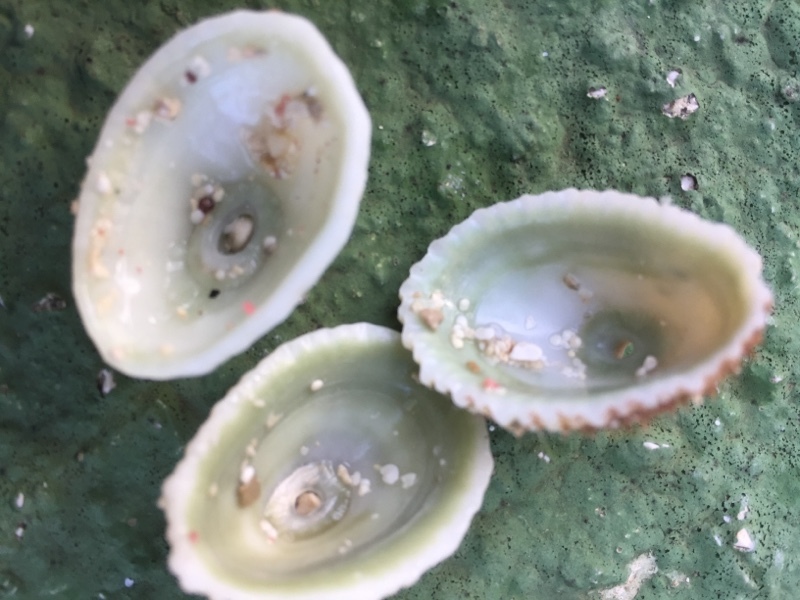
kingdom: Animalia
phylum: Mollusca
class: Gastropoda
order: Lepetellida
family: Fissurellidae
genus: Fissurella
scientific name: Fissurella barbadensis
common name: Barbados keyhole limpet
